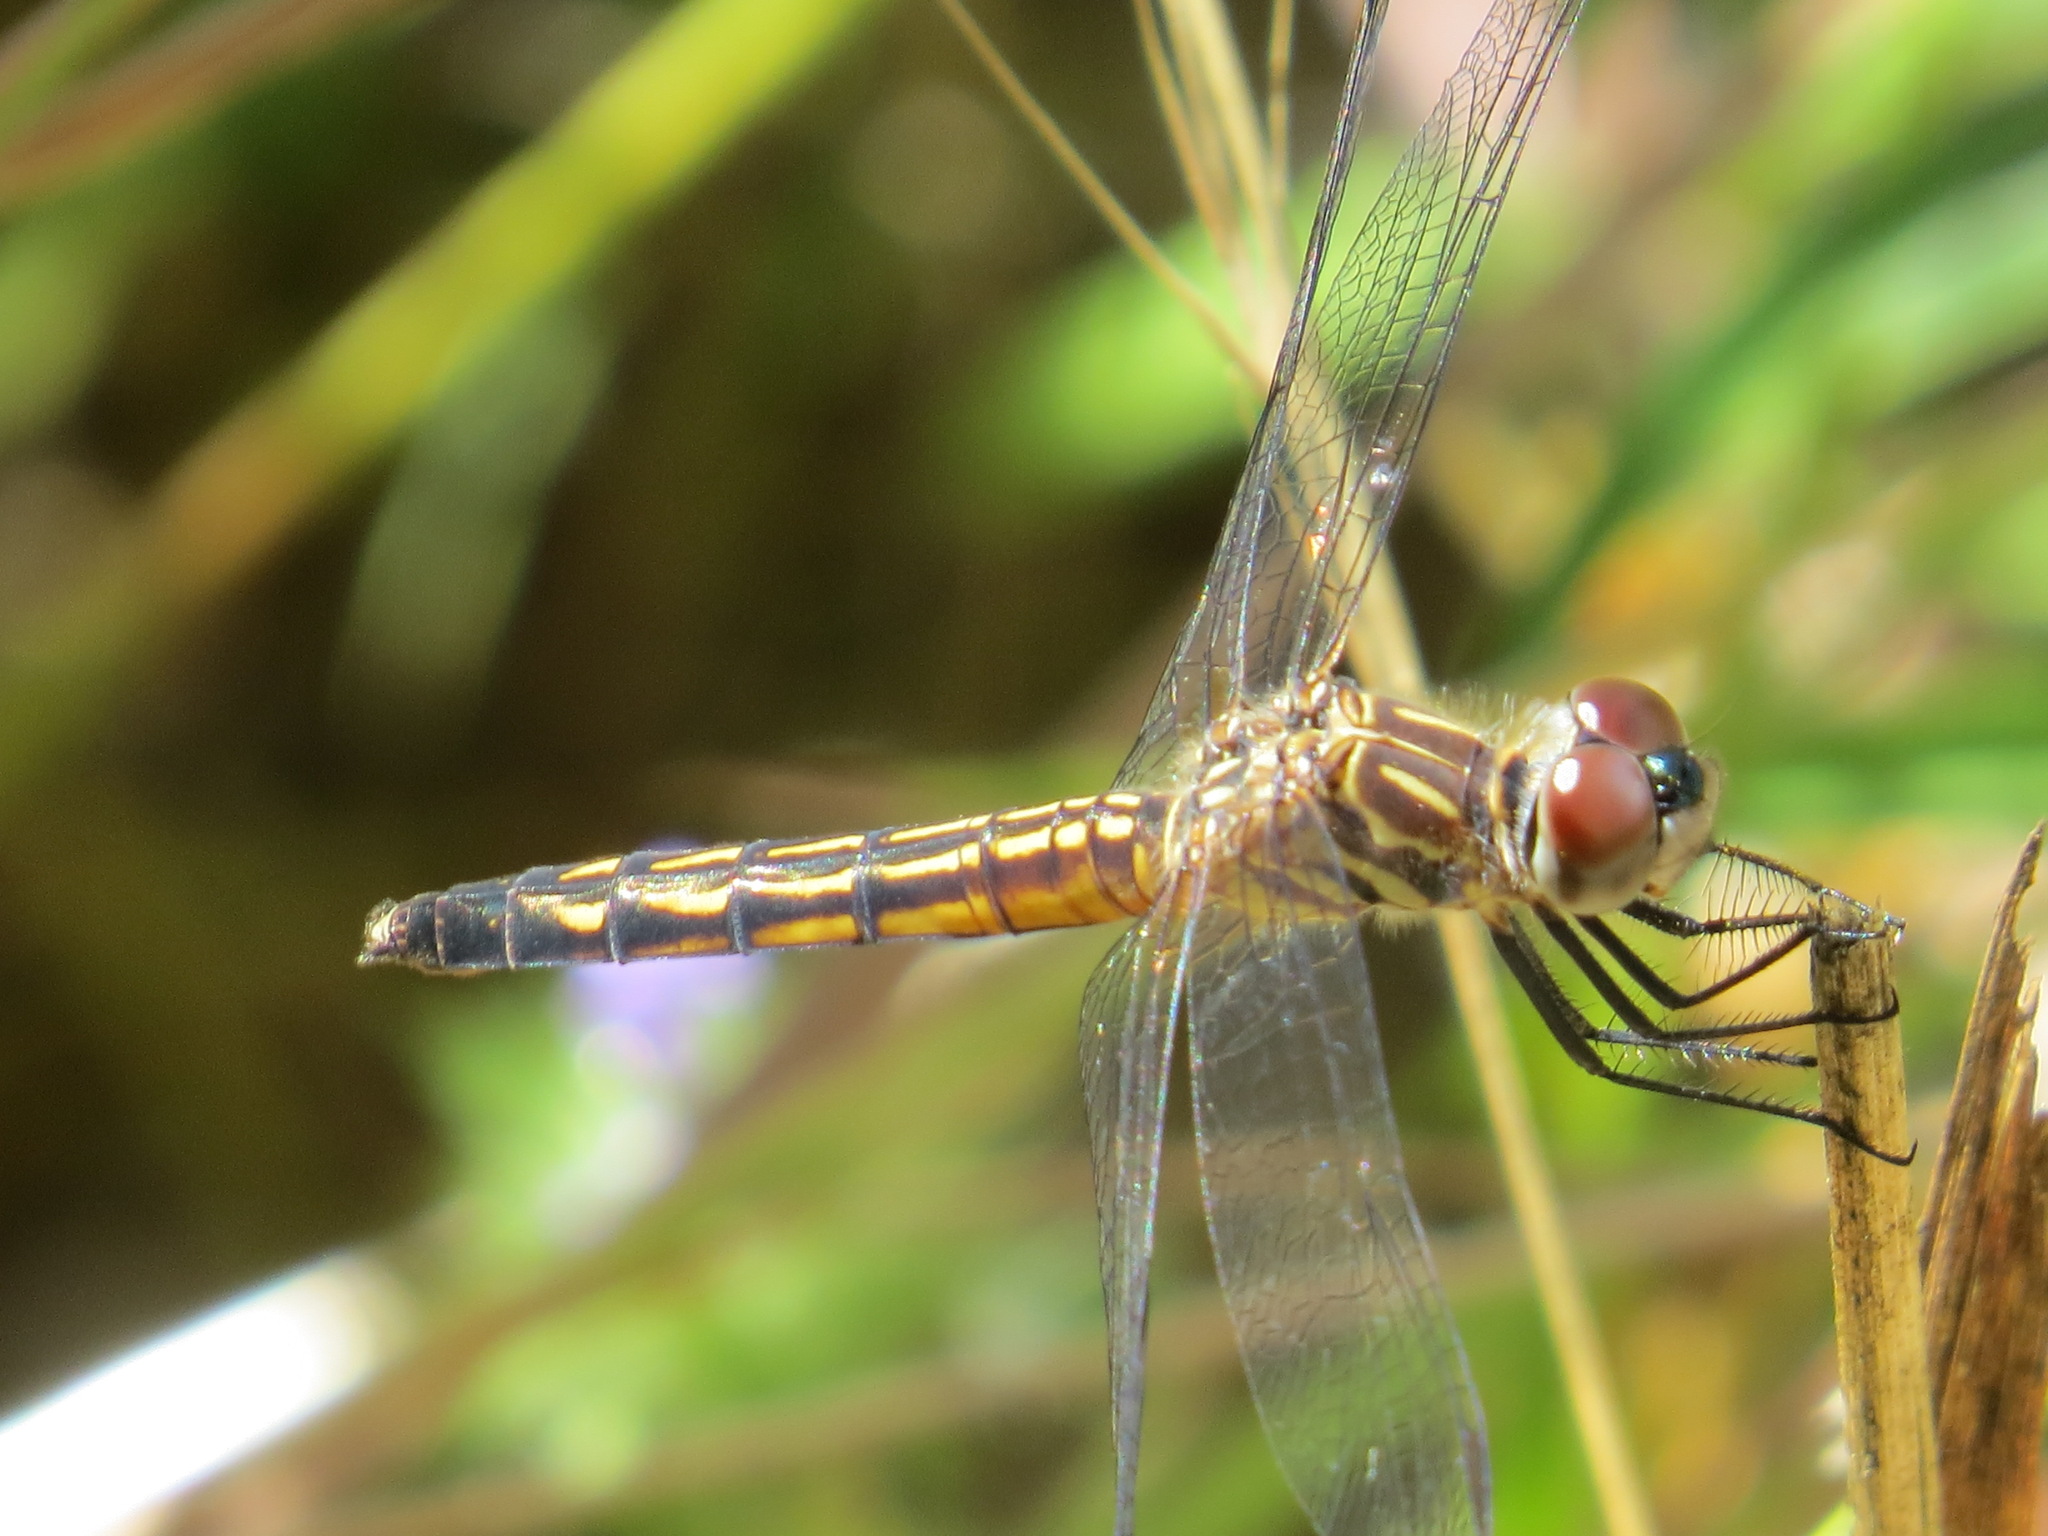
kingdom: Animalia
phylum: Arthropoda
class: Insecta
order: Odonata
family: Libellulidae
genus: Pachydiplax
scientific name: Pachydiplax longipennis
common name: Blue dasher
